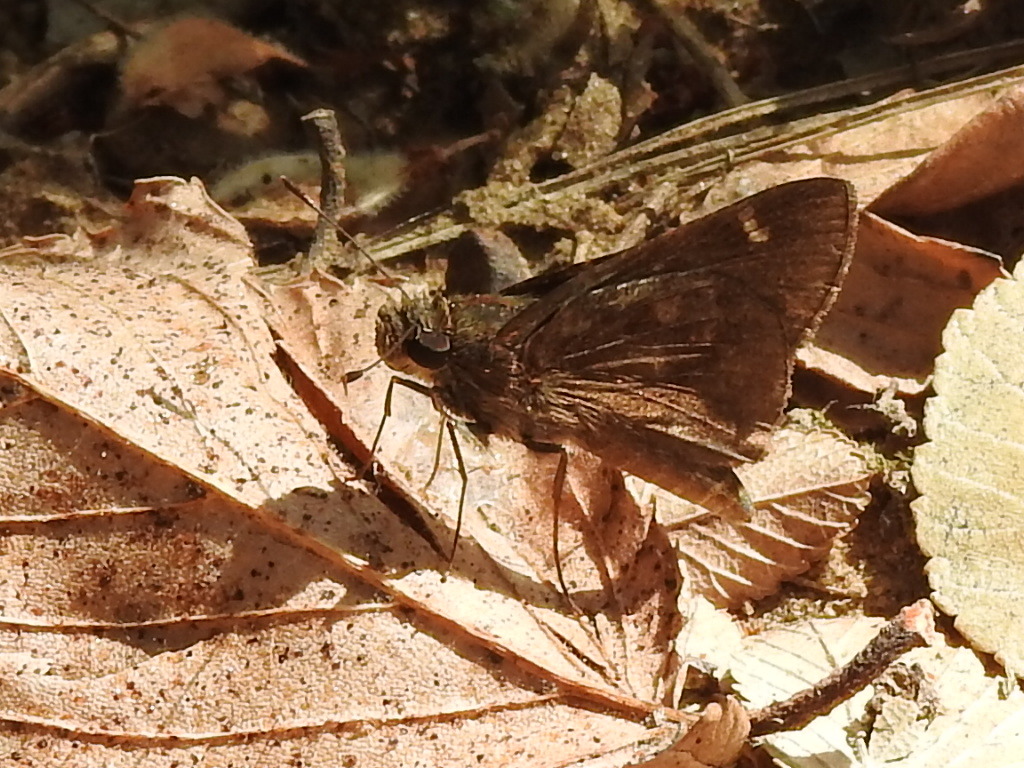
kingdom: Animalia
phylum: Arthropoda
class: Insecta
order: Lepidoptera
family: Hesperiidae
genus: Lerema
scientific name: Lerema accius
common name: Clouded skipper
